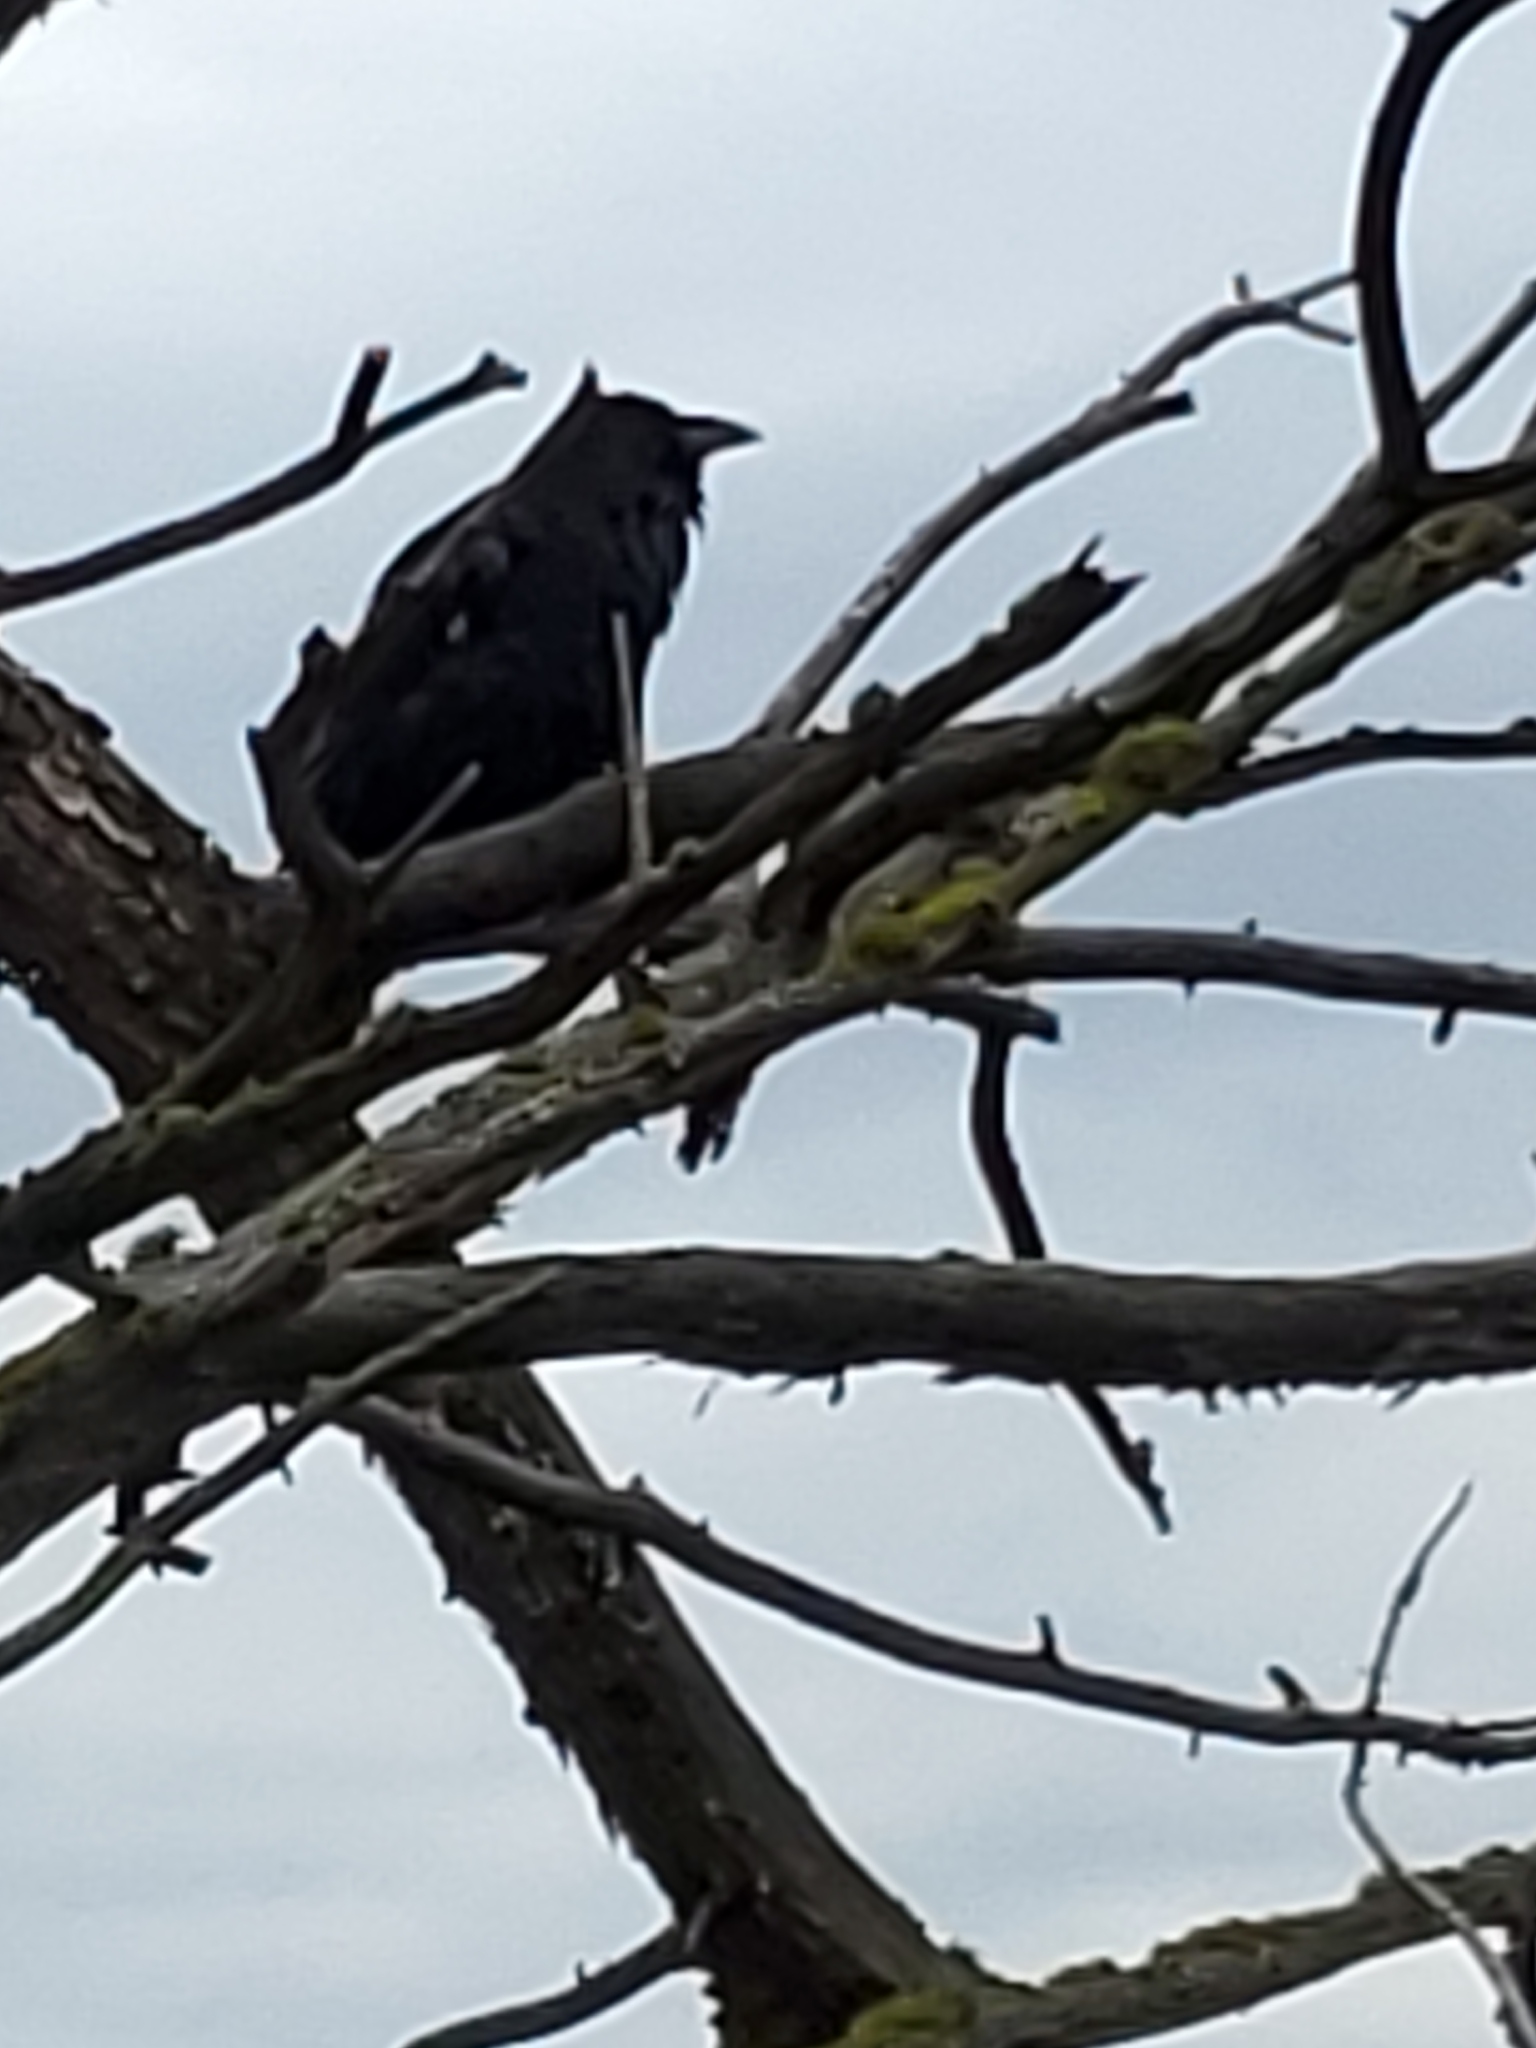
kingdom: Animalia
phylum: Chordata
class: Aves
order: Passeriformes
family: Corvidae
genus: Corvus
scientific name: Corvus corax
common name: Common raven
